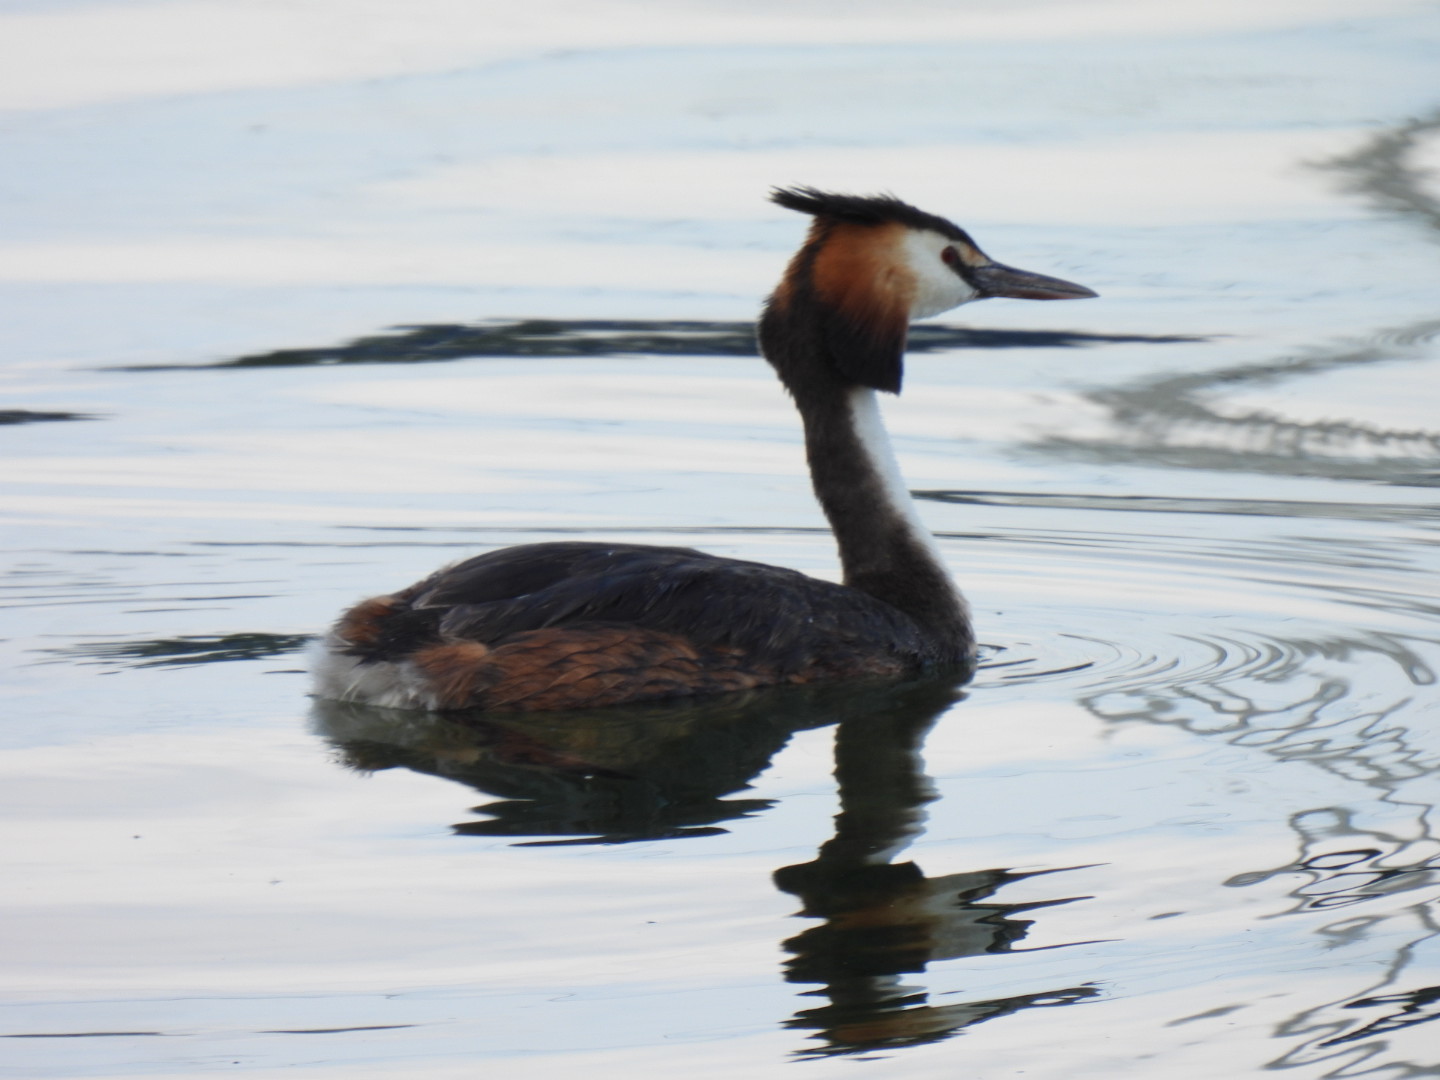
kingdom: Animalia
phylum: Chordata
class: Aves
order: Podicipediformes
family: Podicipedidae
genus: Podiceps
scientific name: Podiceps cristatus
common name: Great crested grebe
